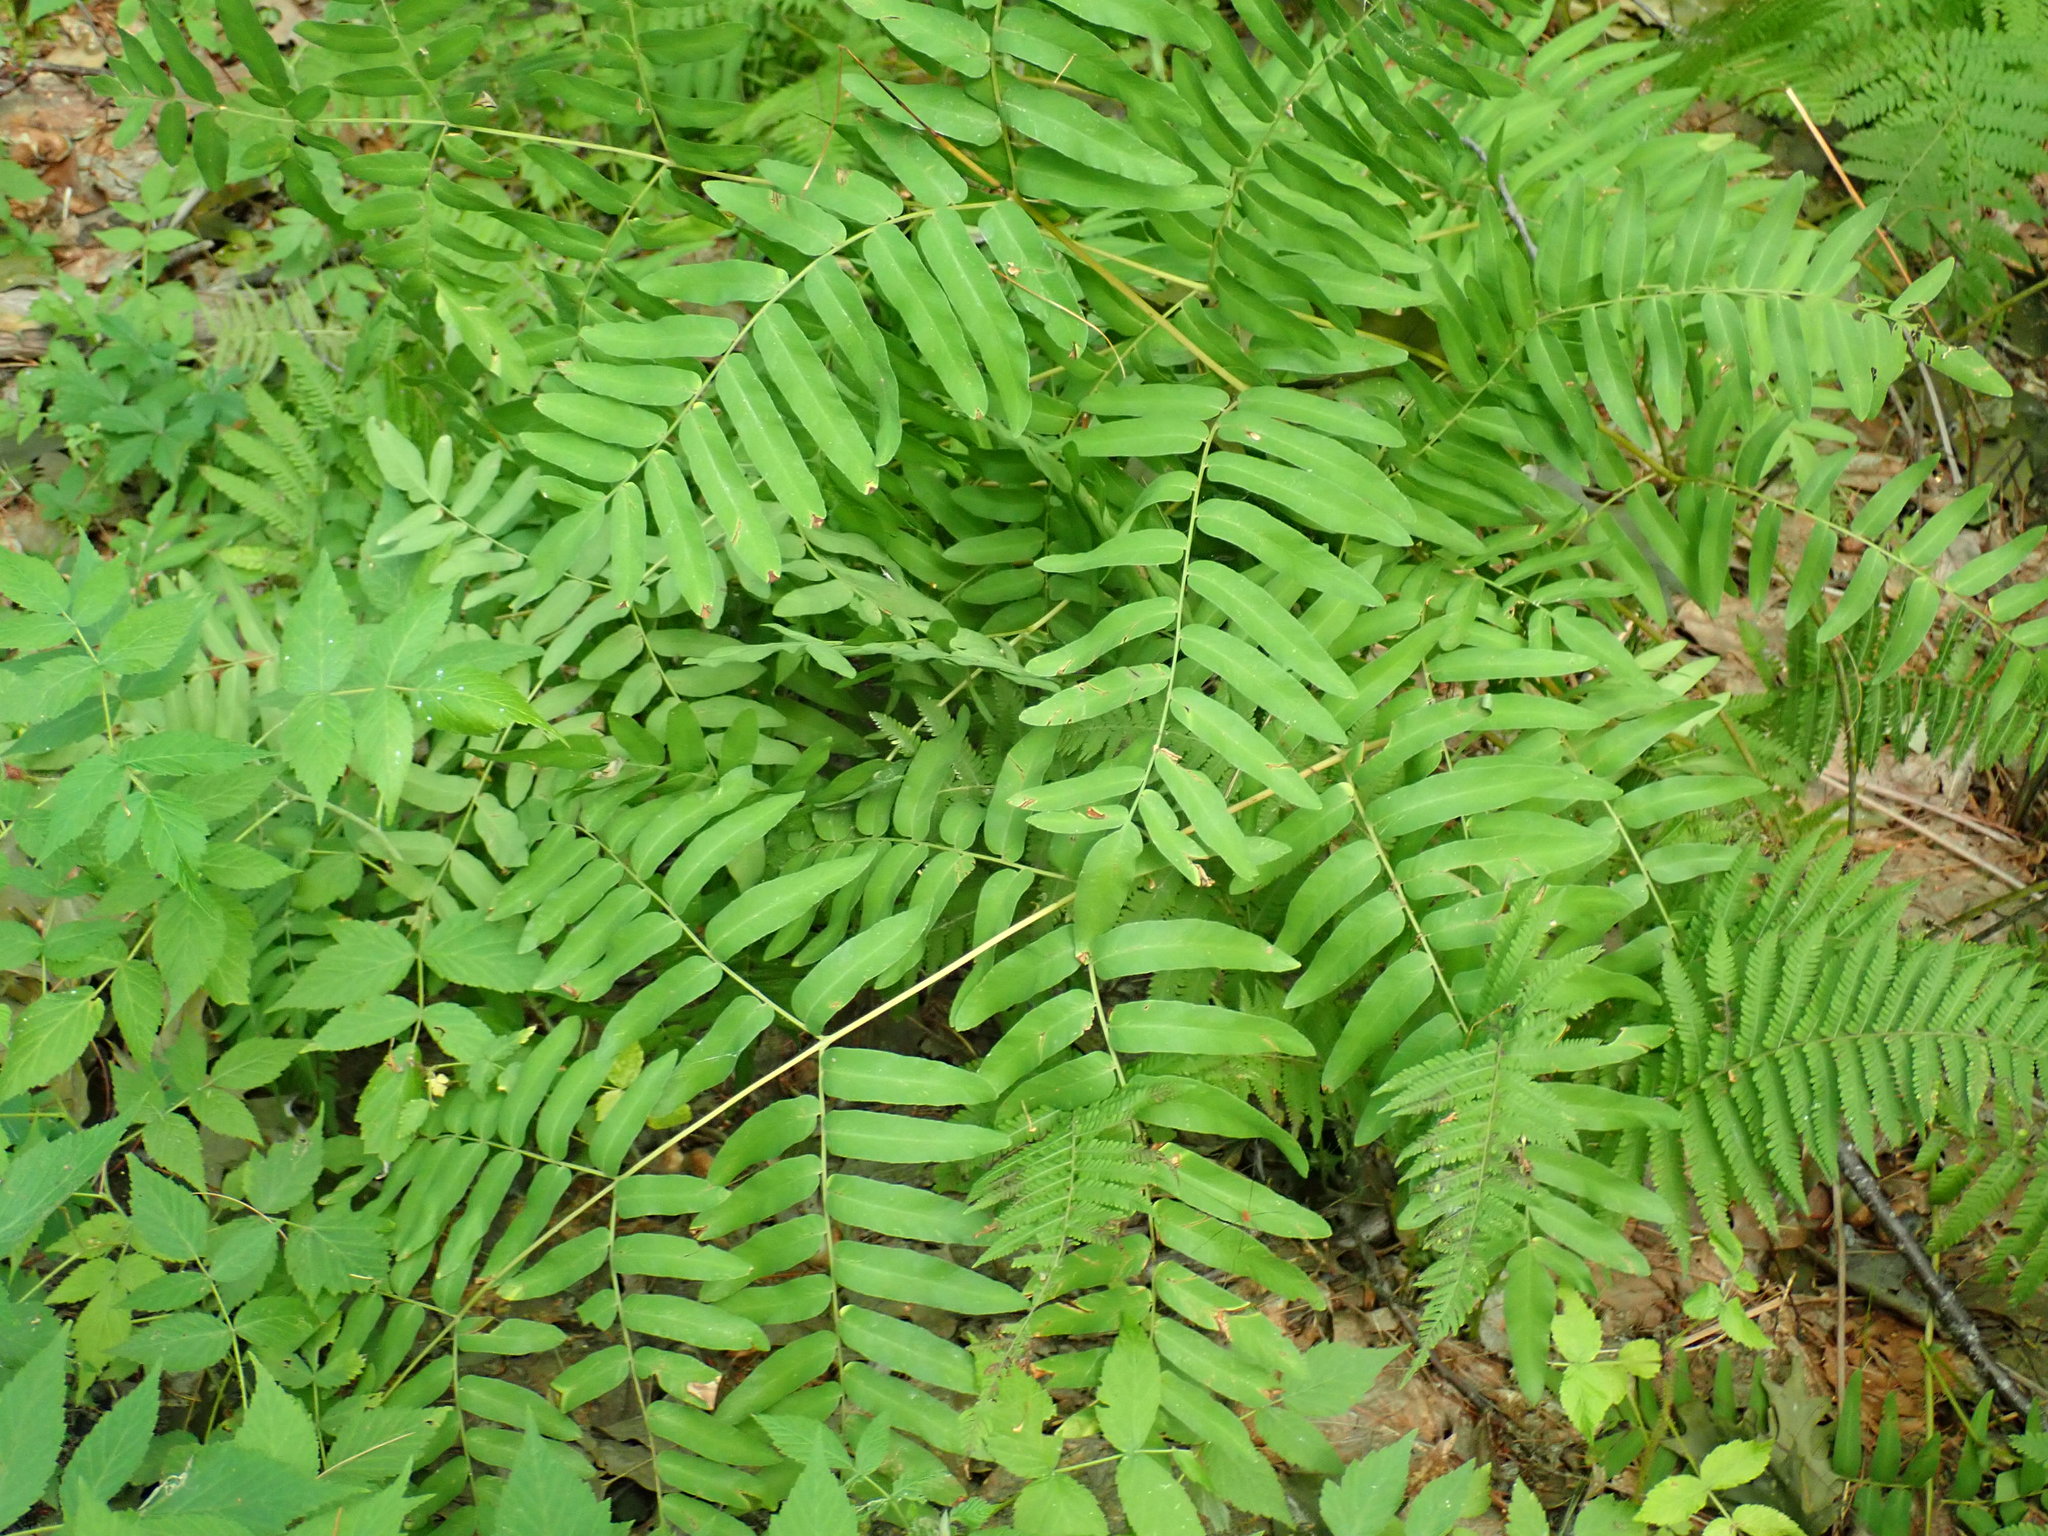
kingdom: Plantae
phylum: Tracheophyta
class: Polypodiopsida
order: Osmundales
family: Osmundaceae
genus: Osmunda
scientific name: Osmunda spectabilis
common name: American royal fern
